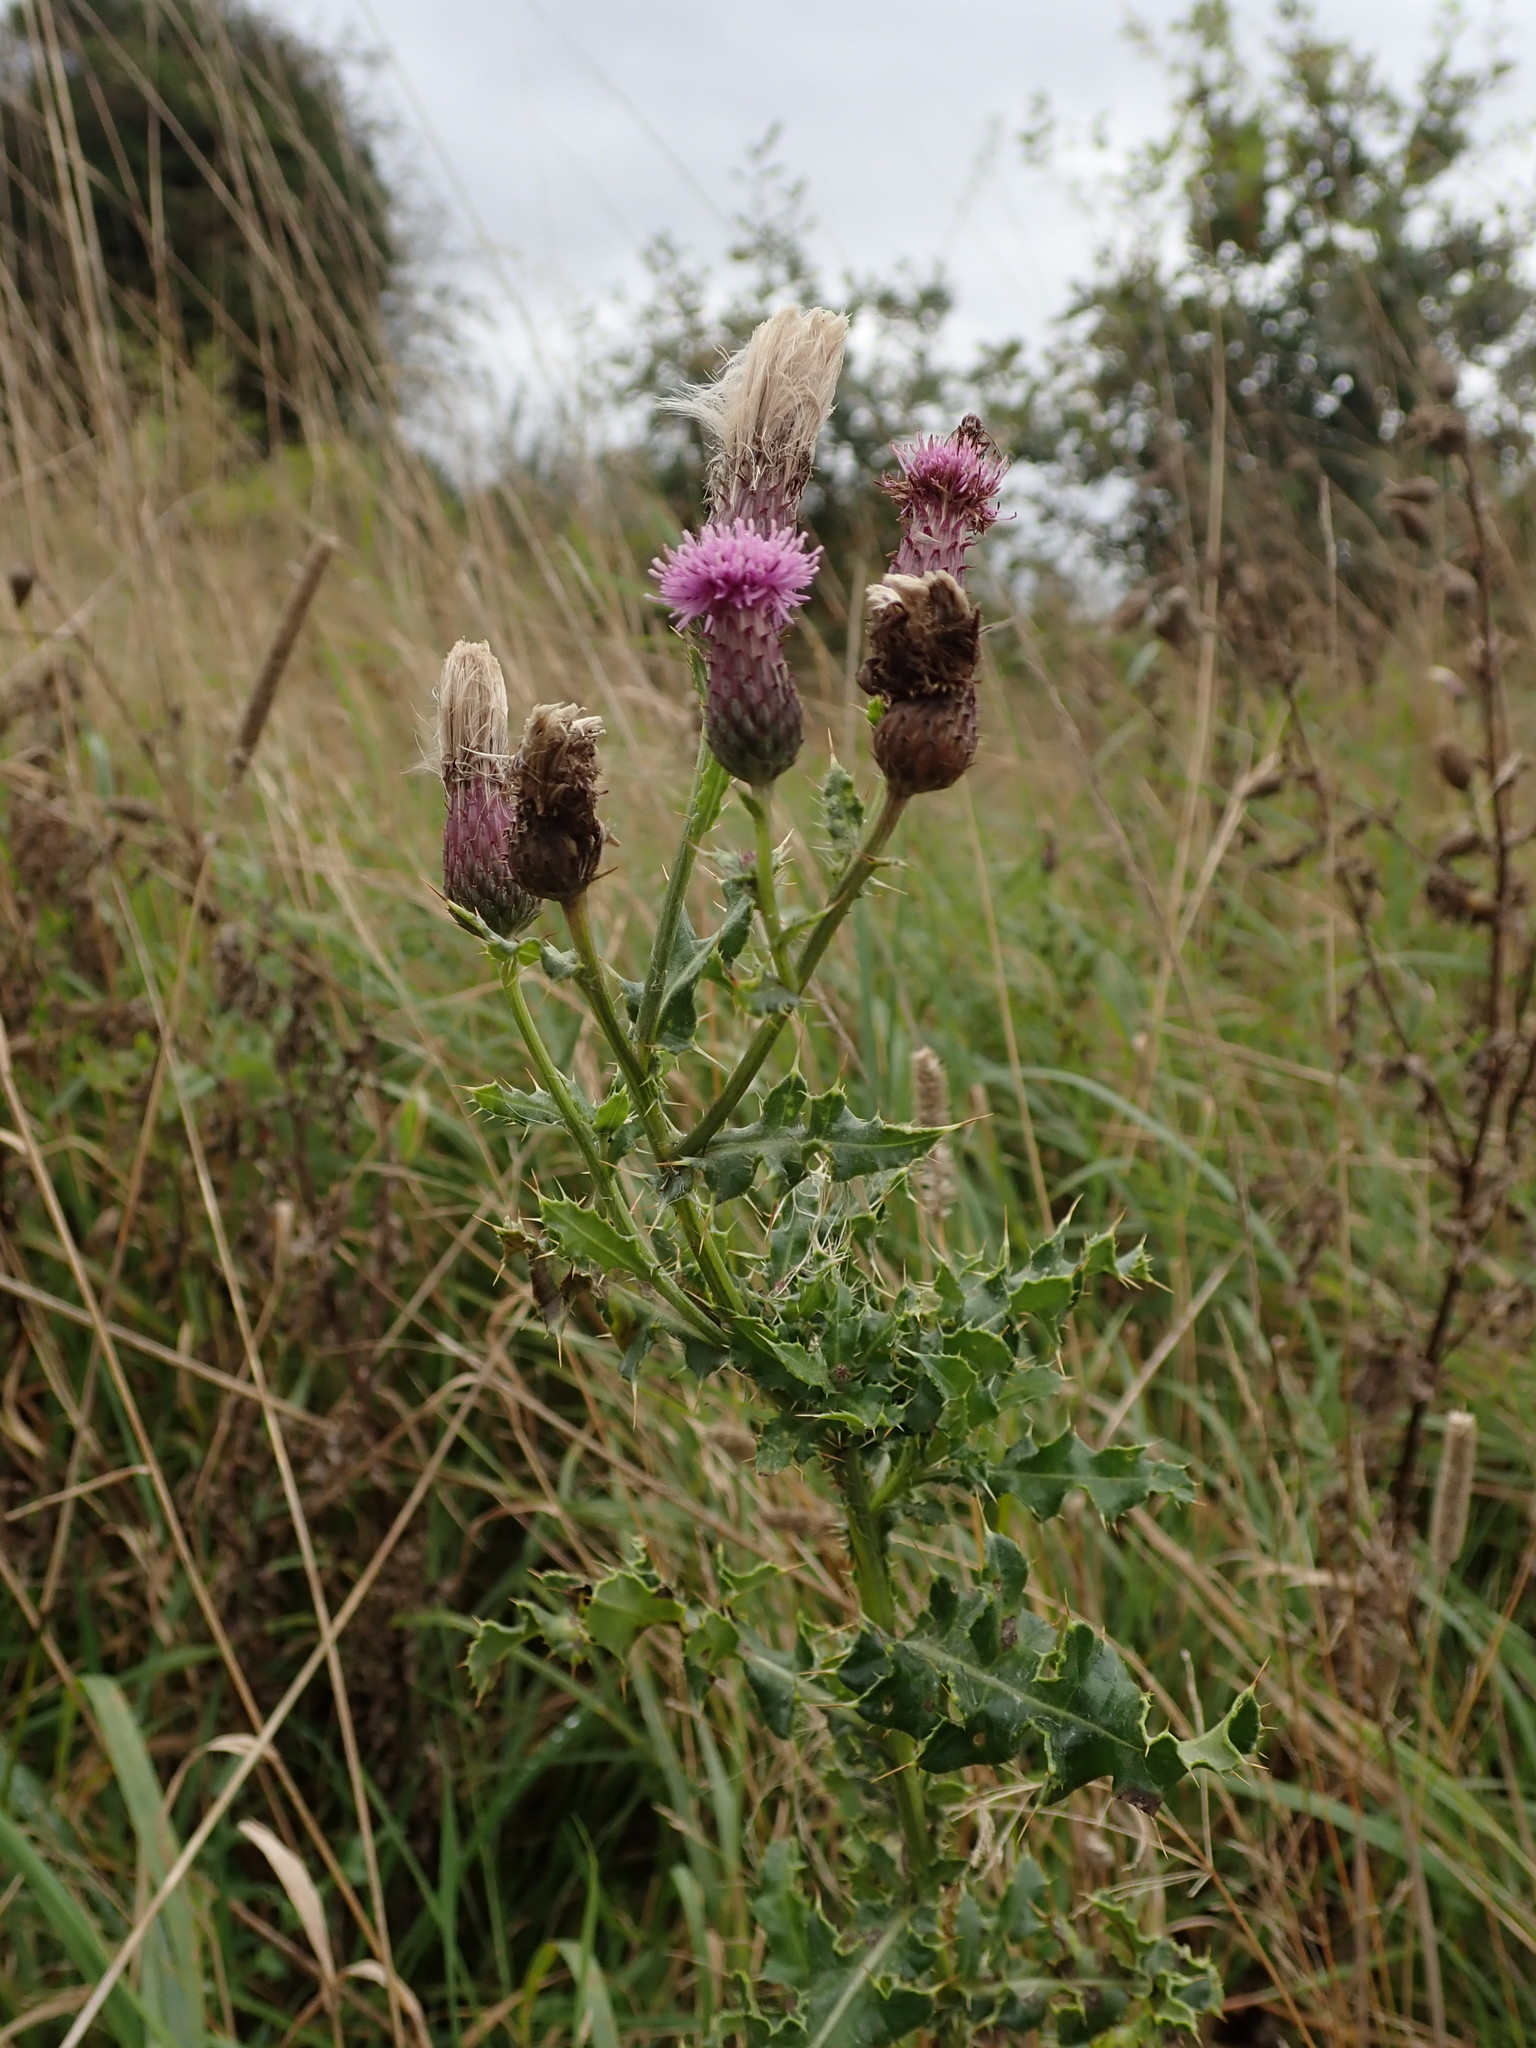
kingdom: Plantae
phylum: Tracheophyta
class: Magnoliopsida
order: Asterales
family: Asteraceae
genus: Cirsium
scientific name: Cirsium arvense
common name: Creeping thistle
